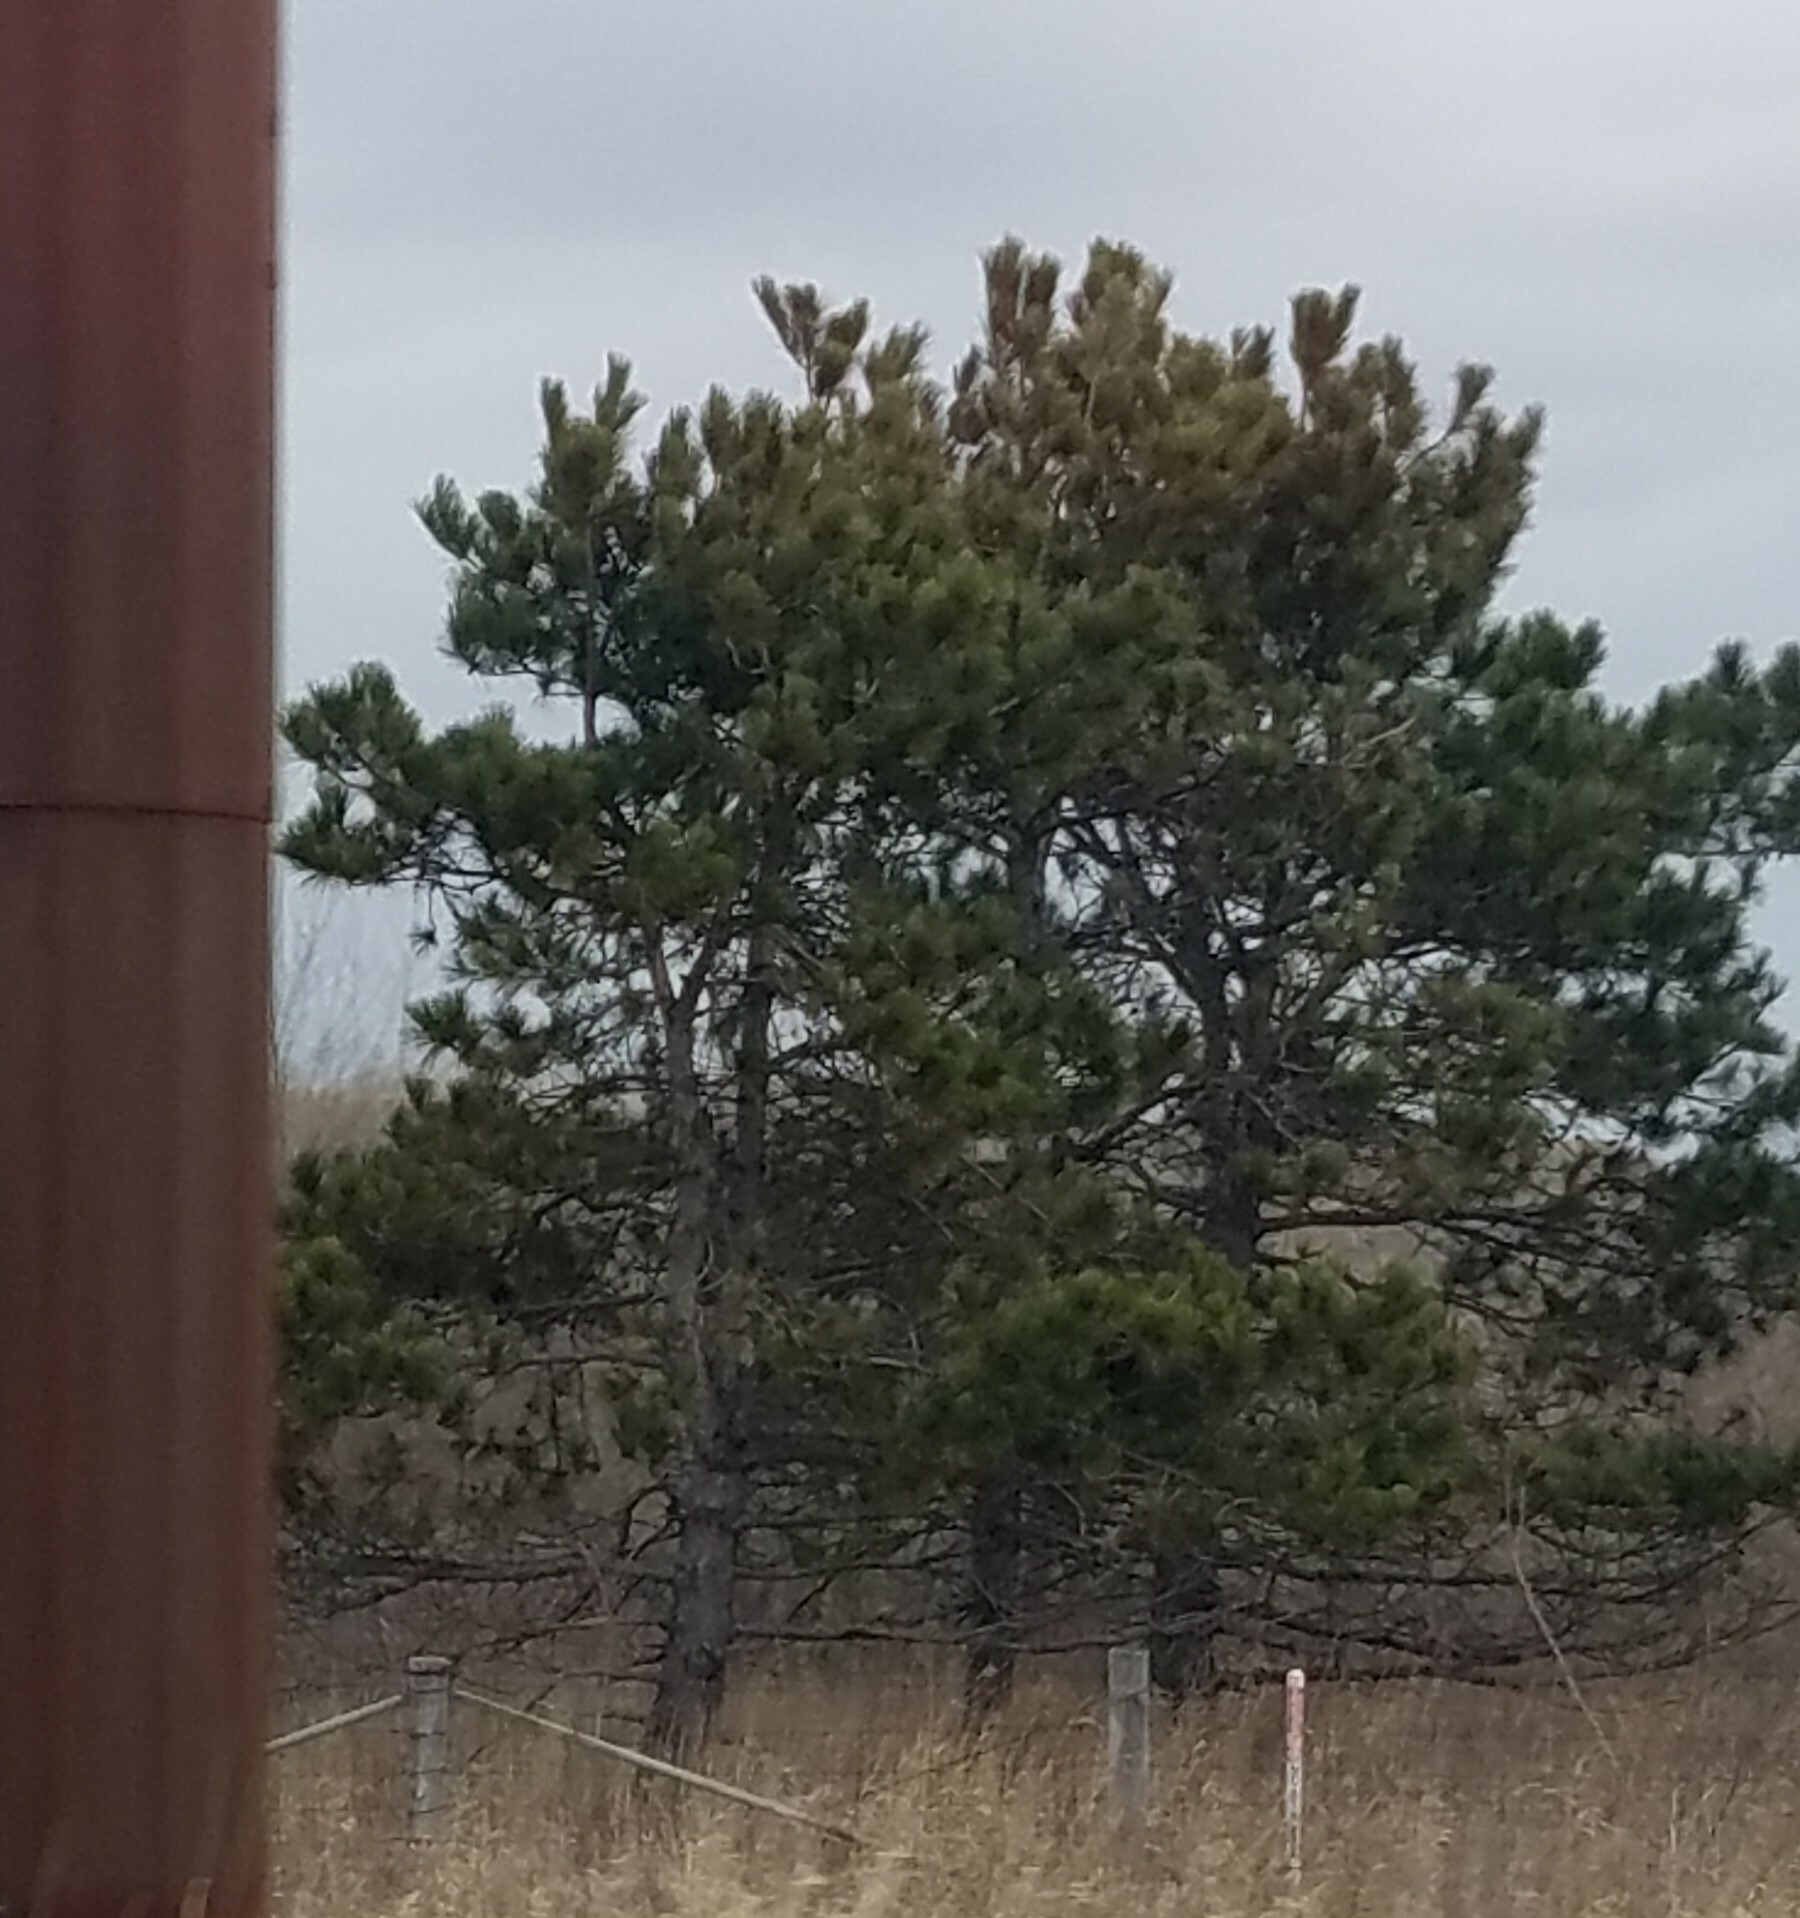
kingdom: Plantae
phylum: Tracheophyta
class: Pinopsida
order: Pinales
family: Pinaceae
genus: Pinus
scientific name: Pinus resinosa
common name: Norway pine
